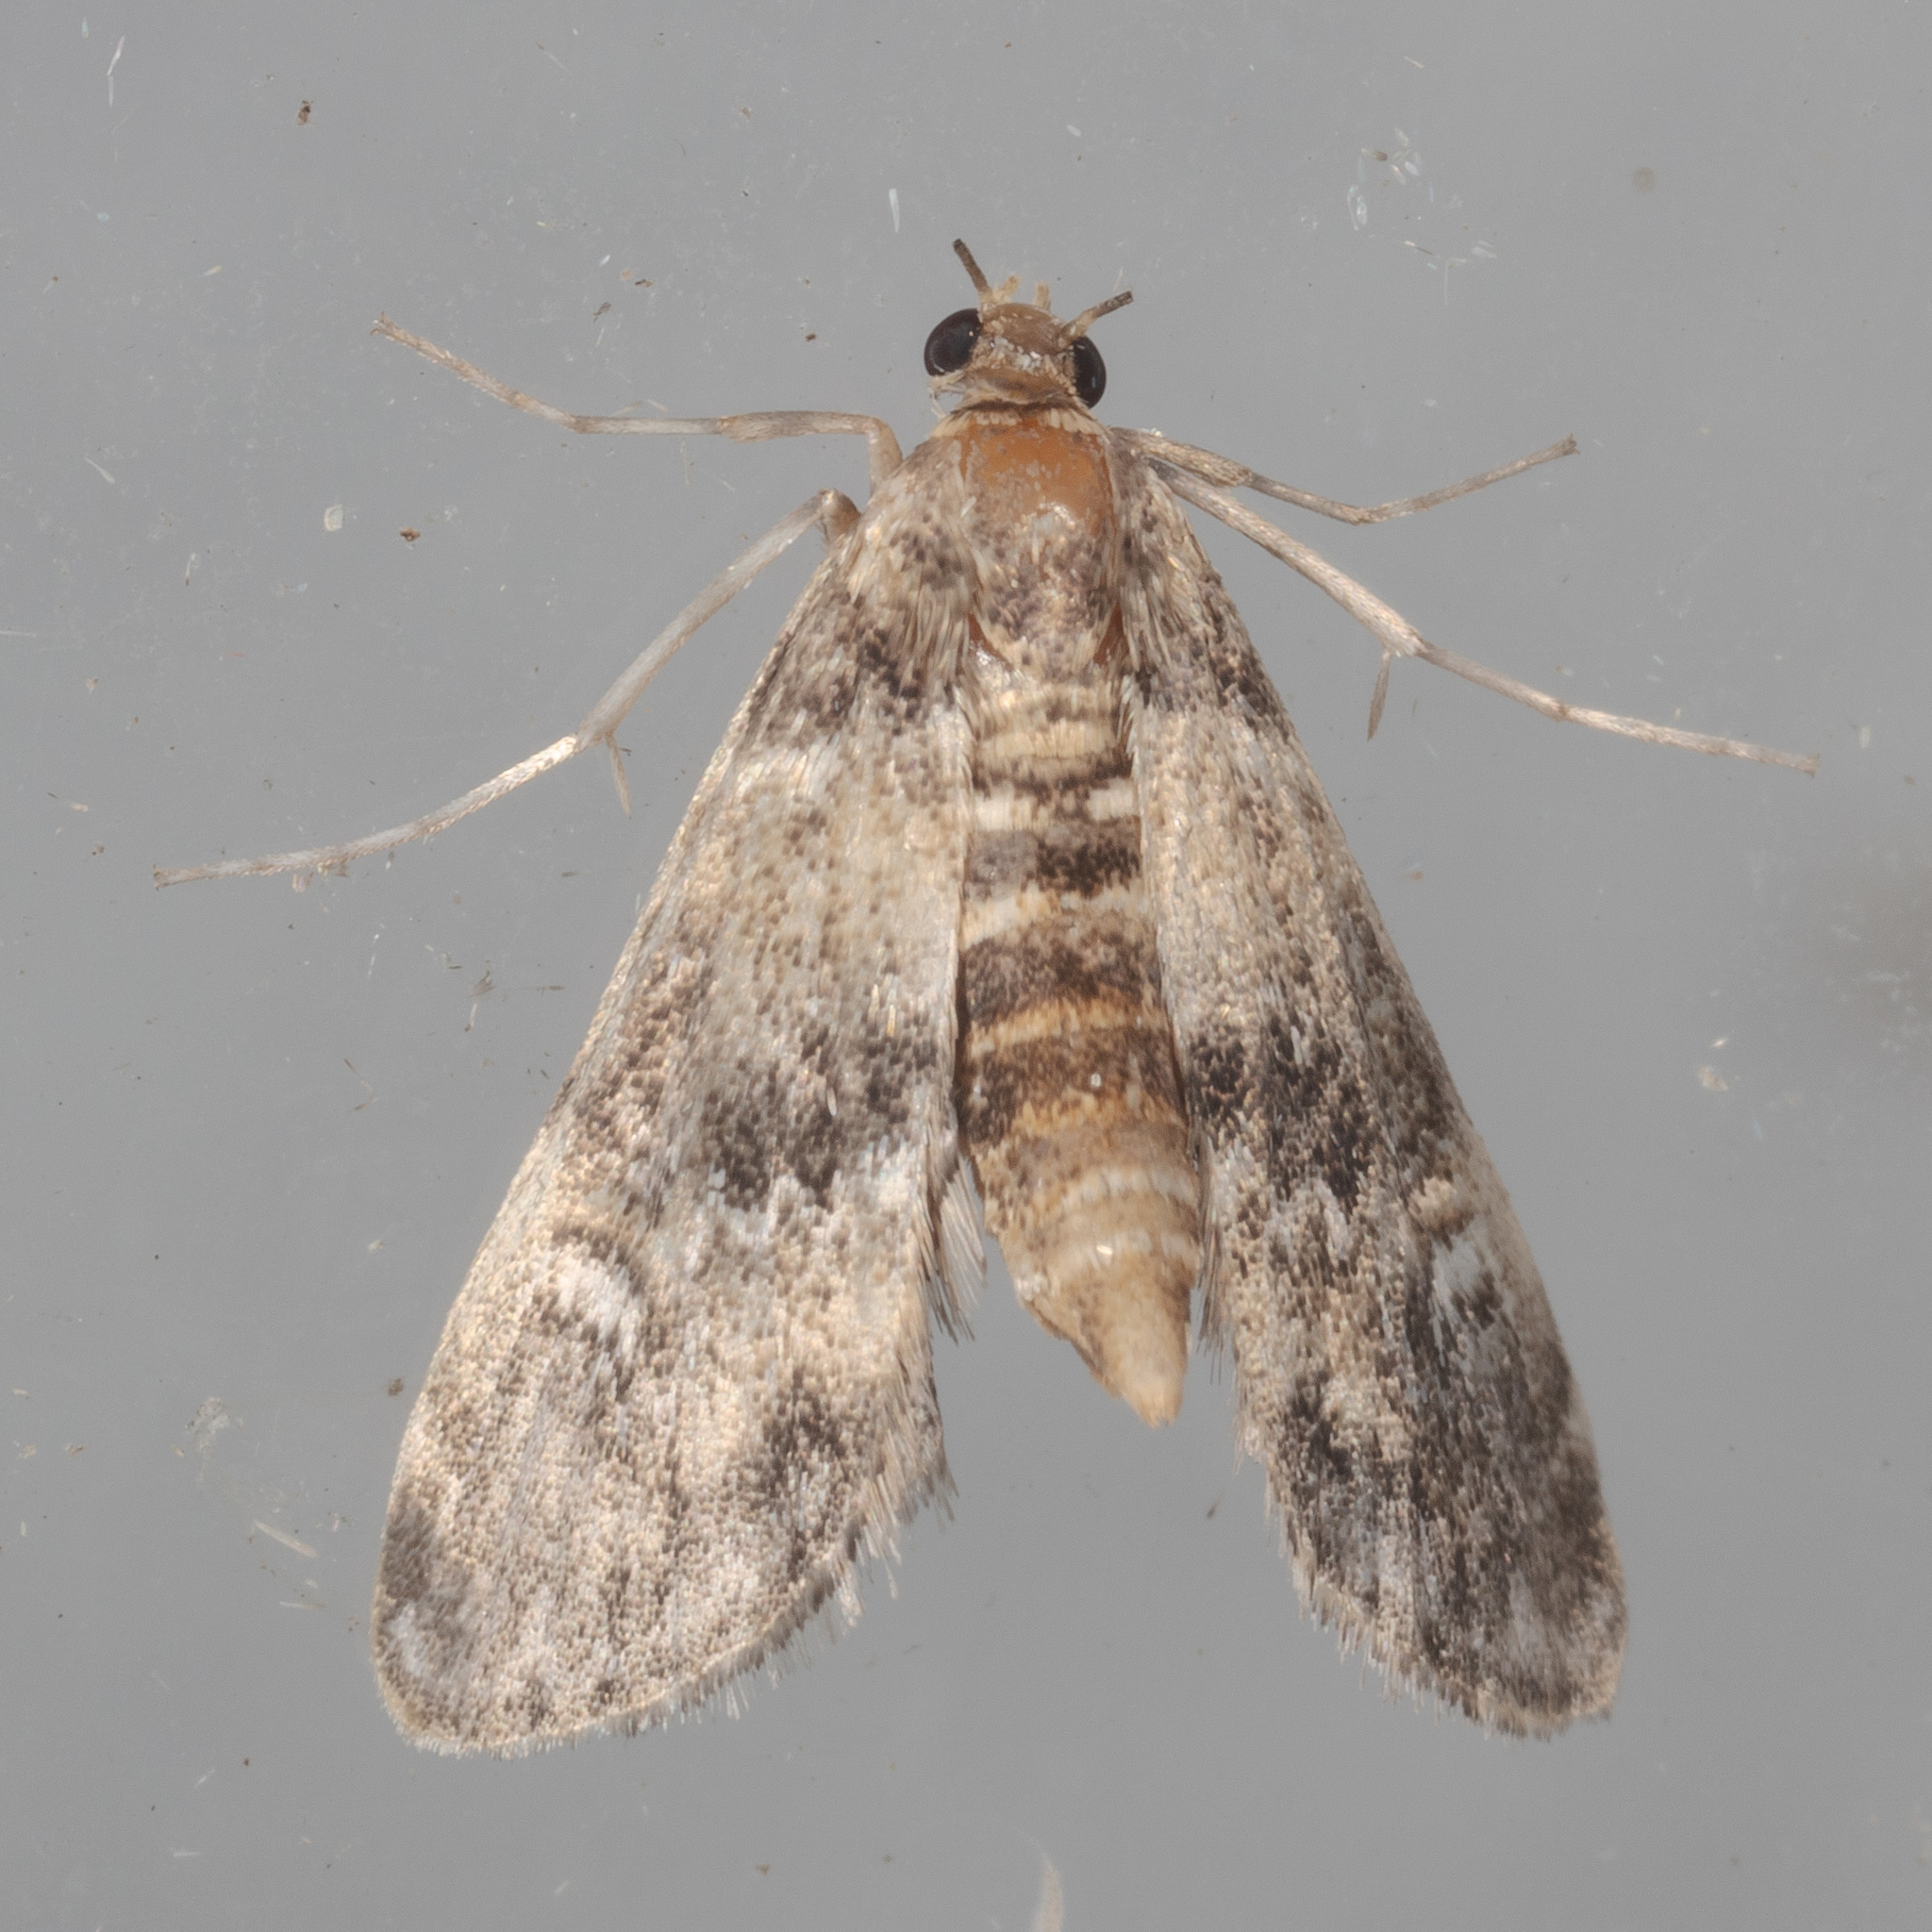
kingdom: Animalia
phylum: Arthropoda
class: Insecta
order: Lepidoptera
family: Crambidae
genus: Elophila
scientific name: Elophila obliteralis
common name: Waterlily leafcutter moth
